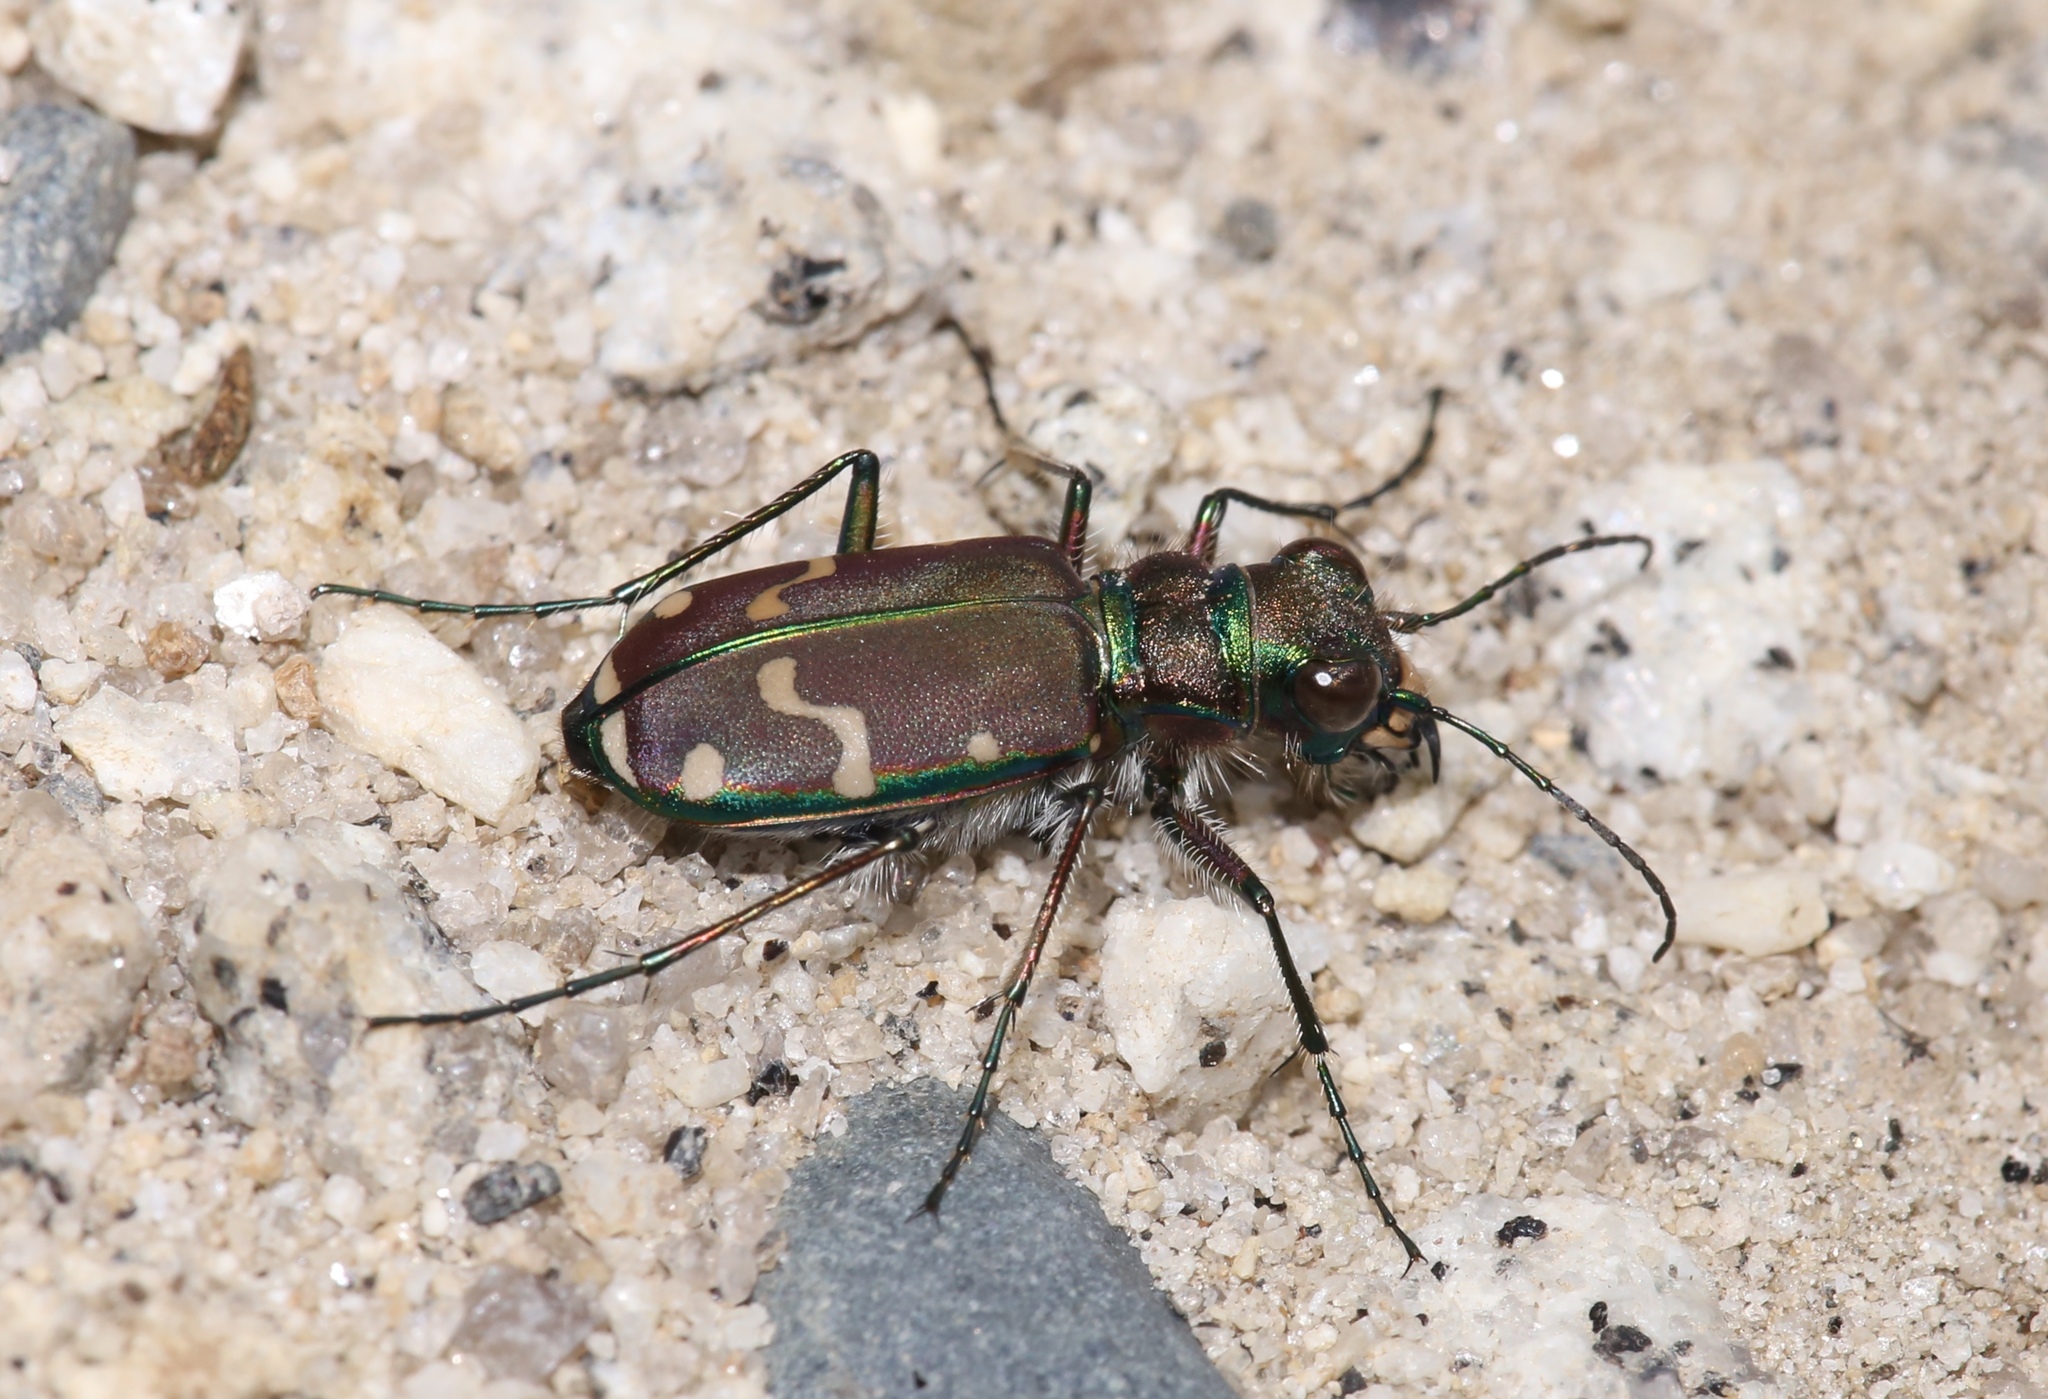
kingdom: Animalia
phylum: Arthropoda
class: Insecta
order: Coleoptera
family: Carabidae
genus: Cicindela
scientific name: Cicindela limbalis
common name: Common claybank tiger beetle
